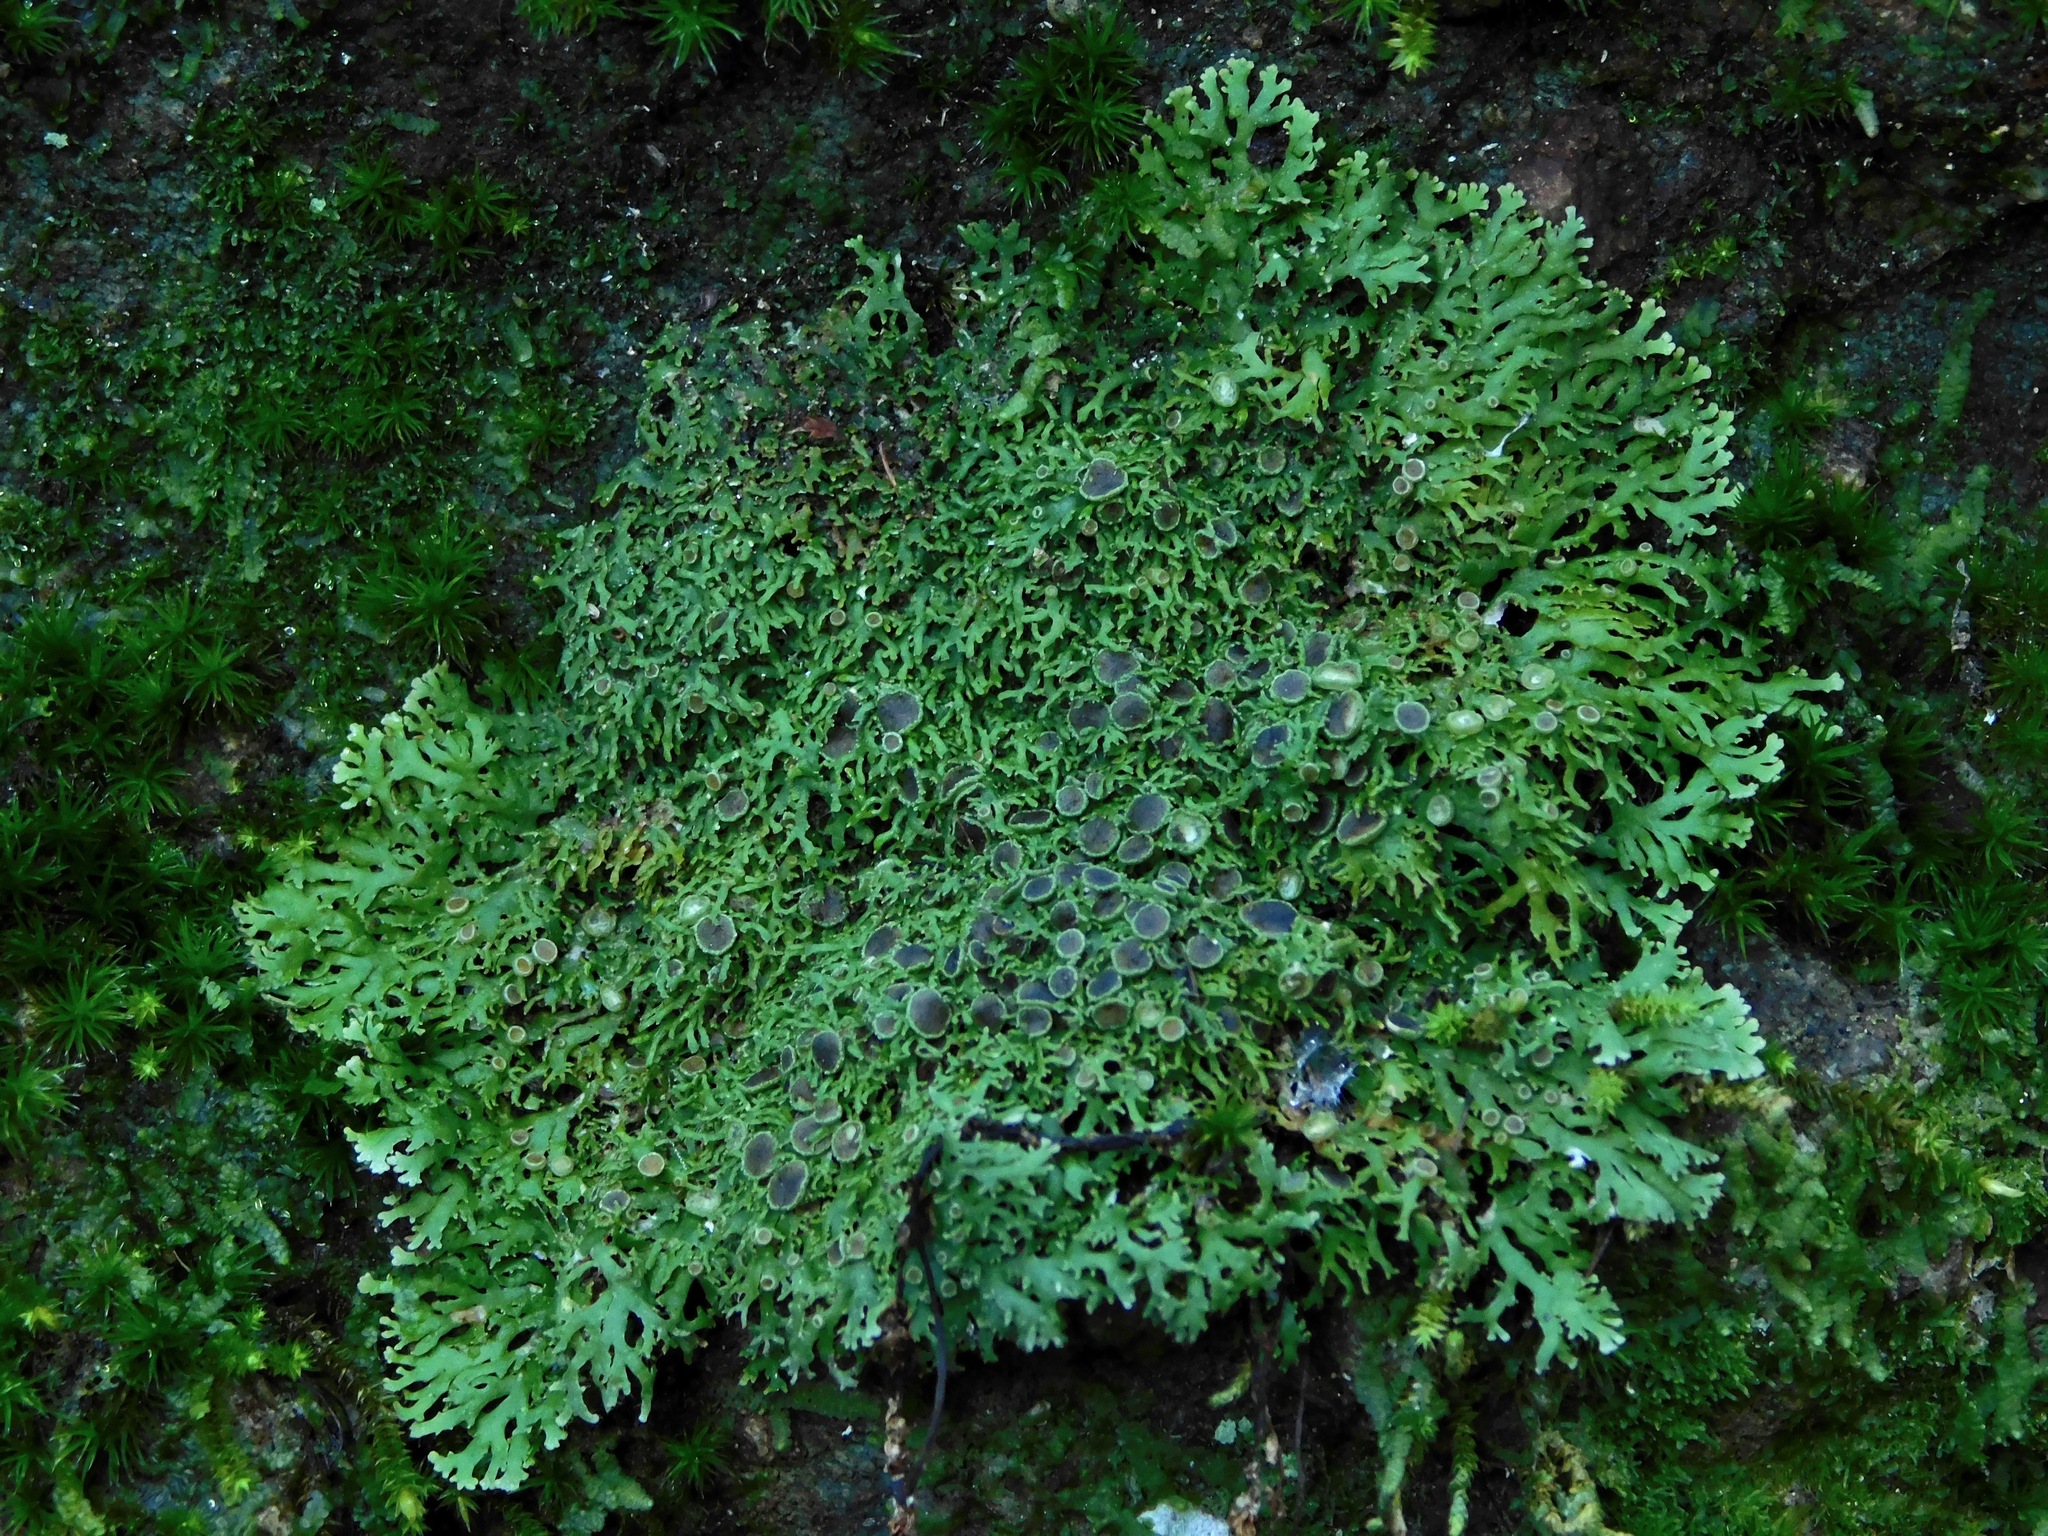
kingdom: Fungi
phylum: Ascomycota
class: Lecanoromycetes
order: Caliciales
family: Physciaceae
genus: Kurokawia
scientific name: Kurokawia palmulata
